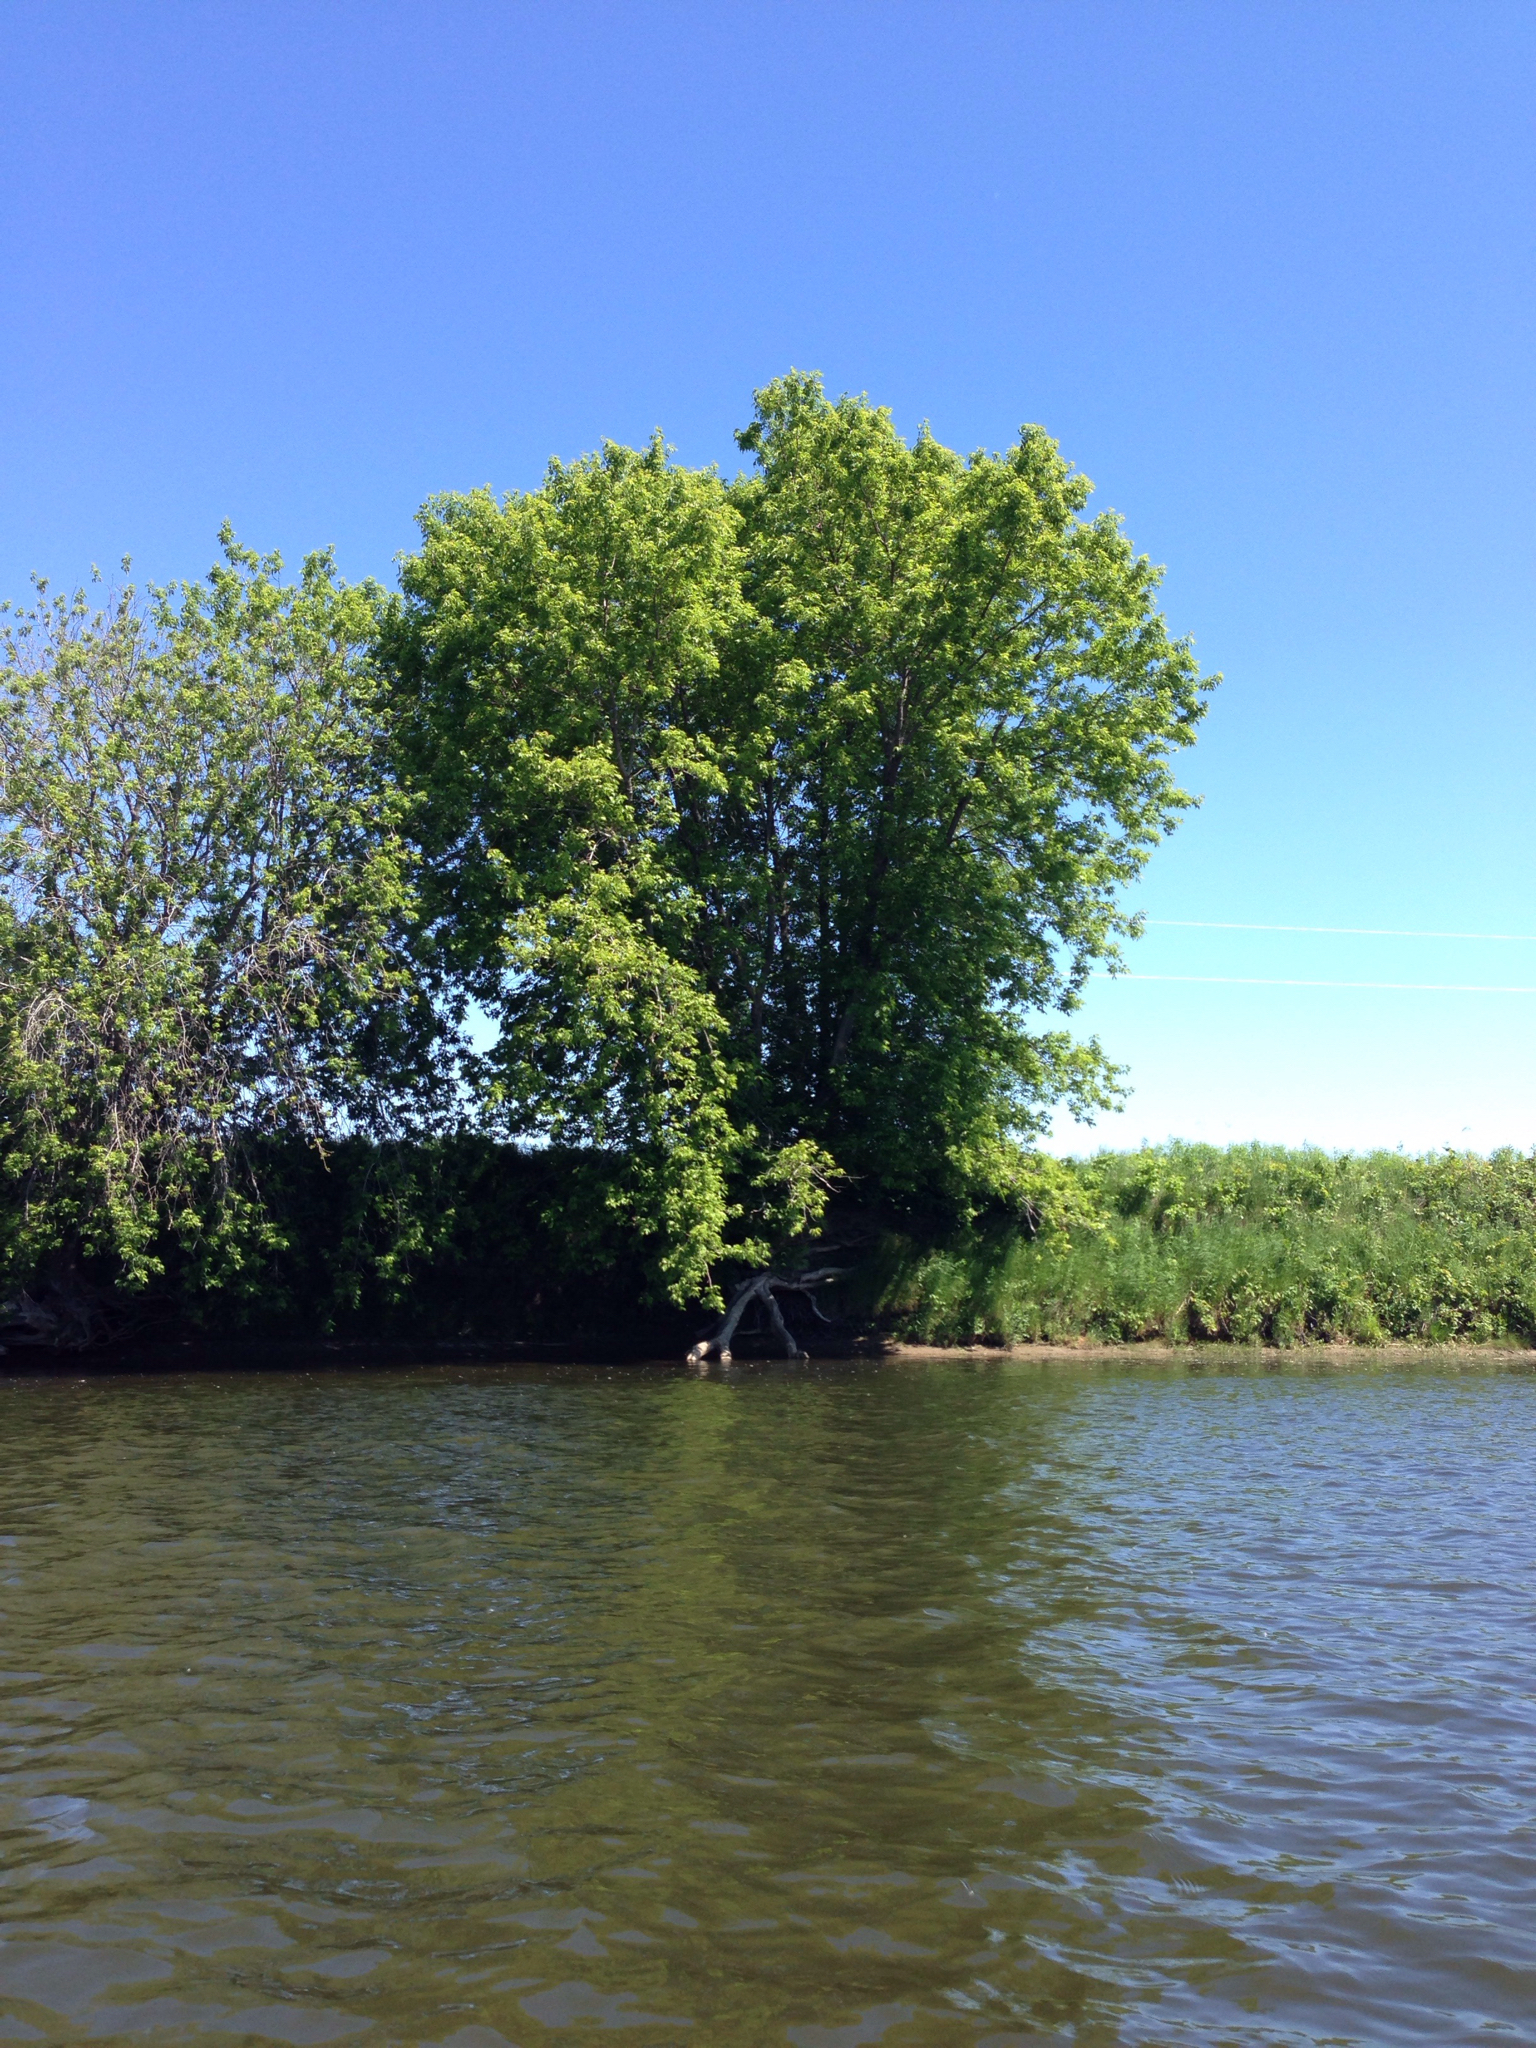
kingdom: Plantae
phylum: Tracheophyta
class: Magnoliopsida
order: Sapindales
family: Sapindaceae
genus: Acer
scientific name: Acer negundo
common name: Ashleaf maple
